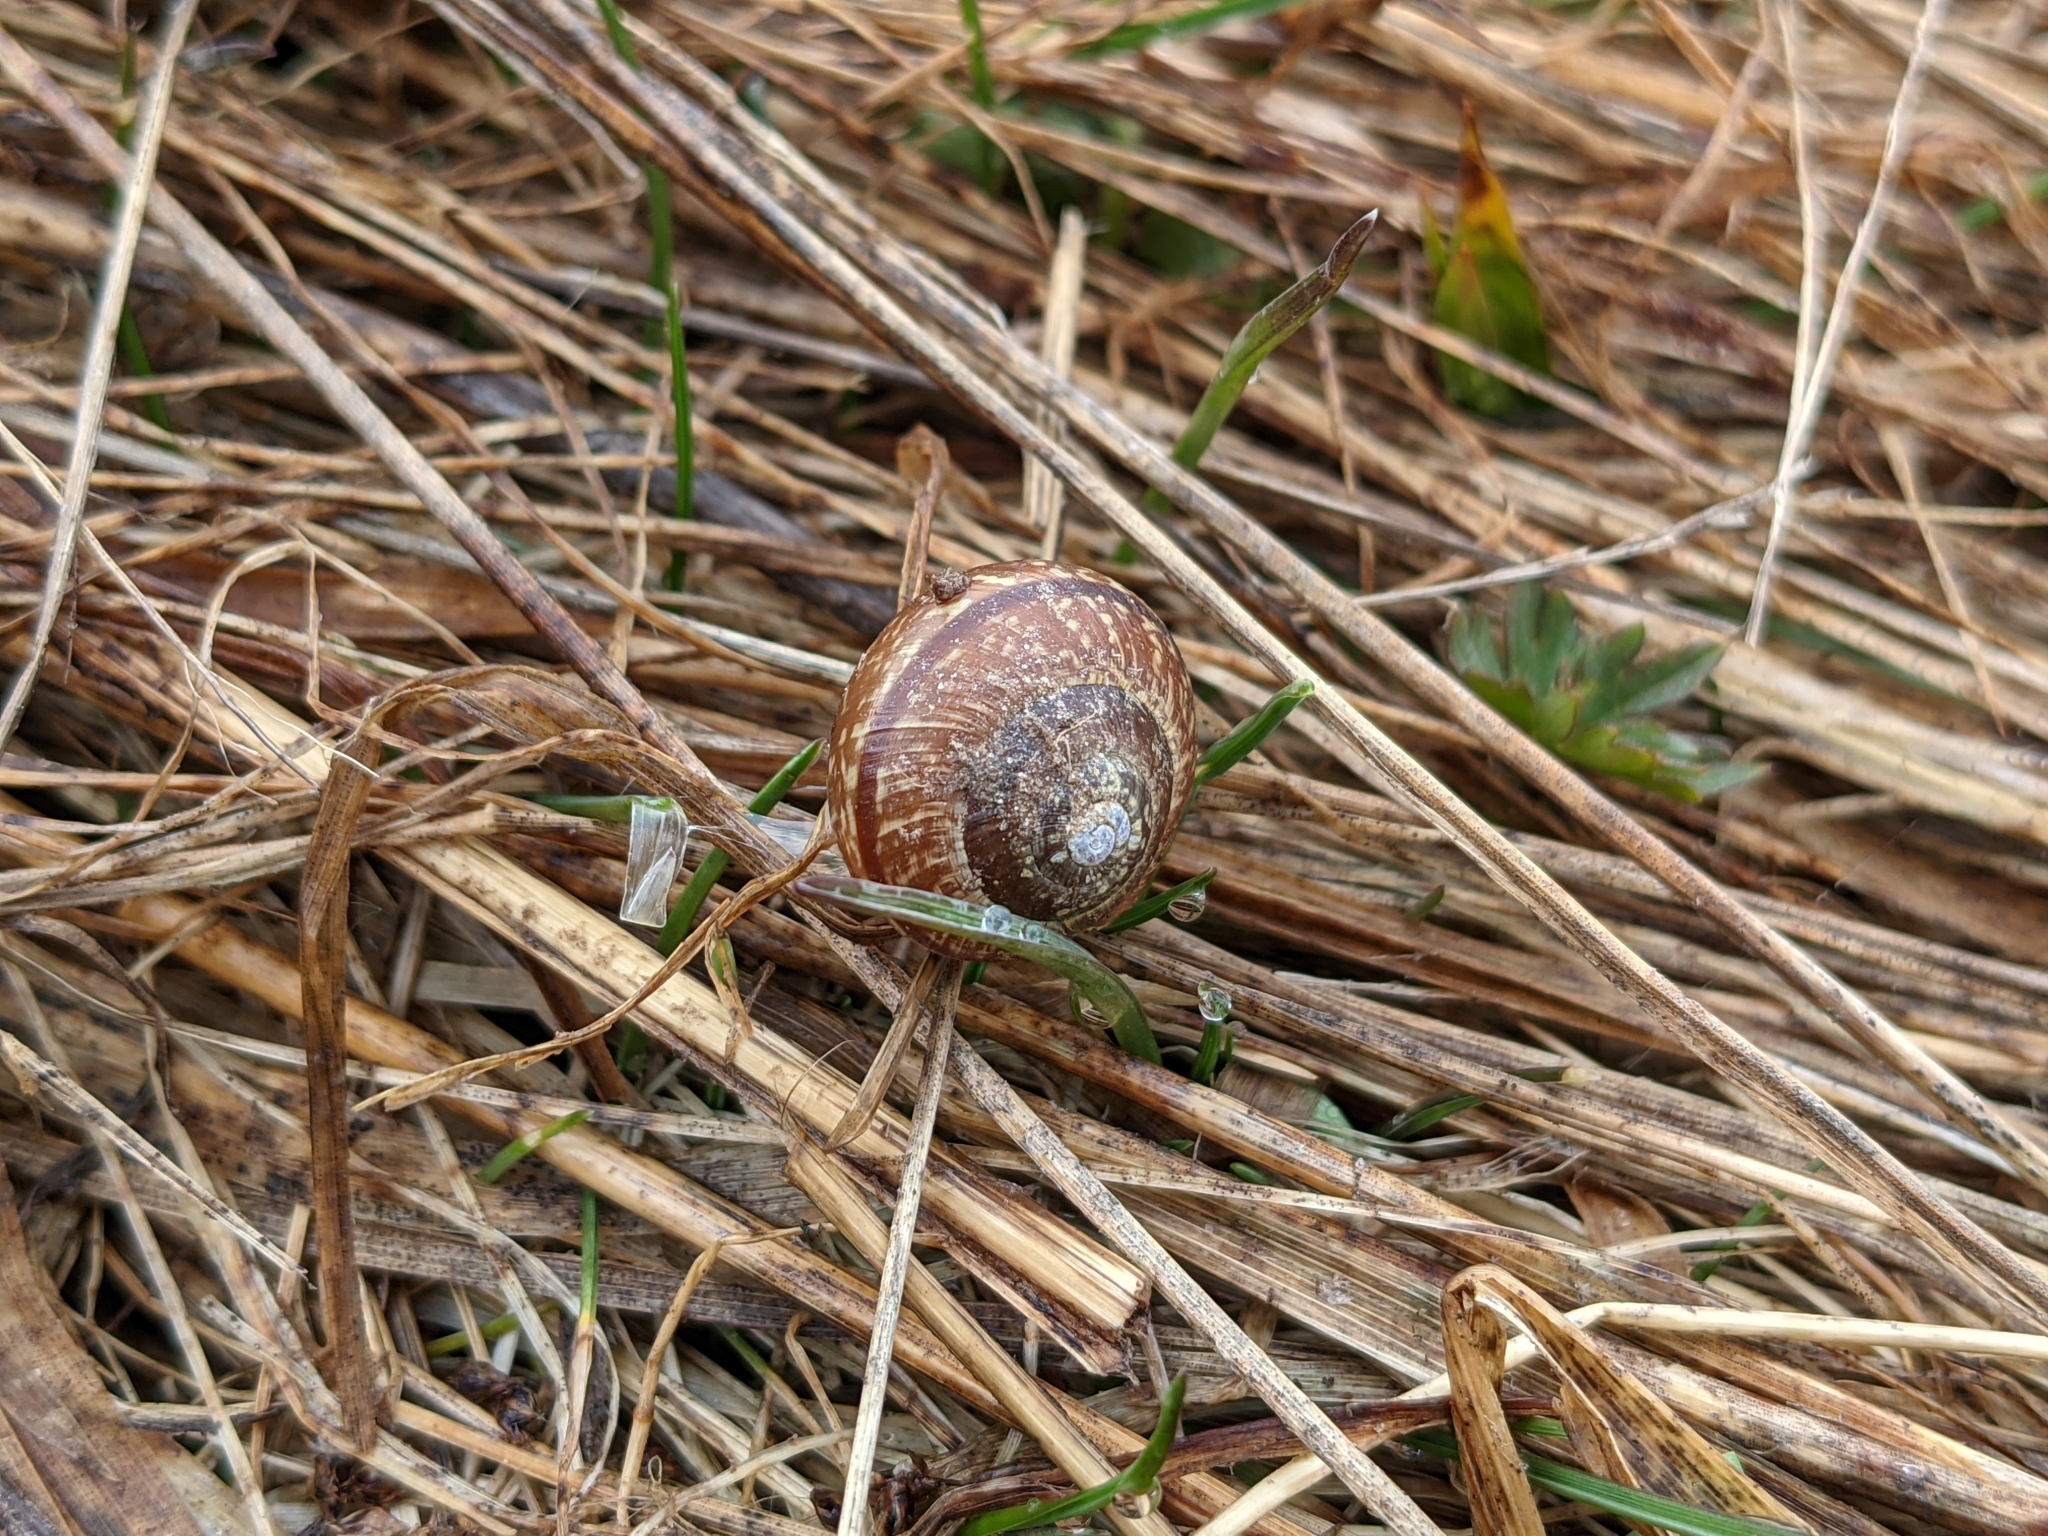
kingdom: Animalia
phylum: Mollusca
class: Gastropoda
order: Stylommatophora
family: Helicidae
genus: Arianta
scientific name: Arianta arbustorum
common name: Copse snail
